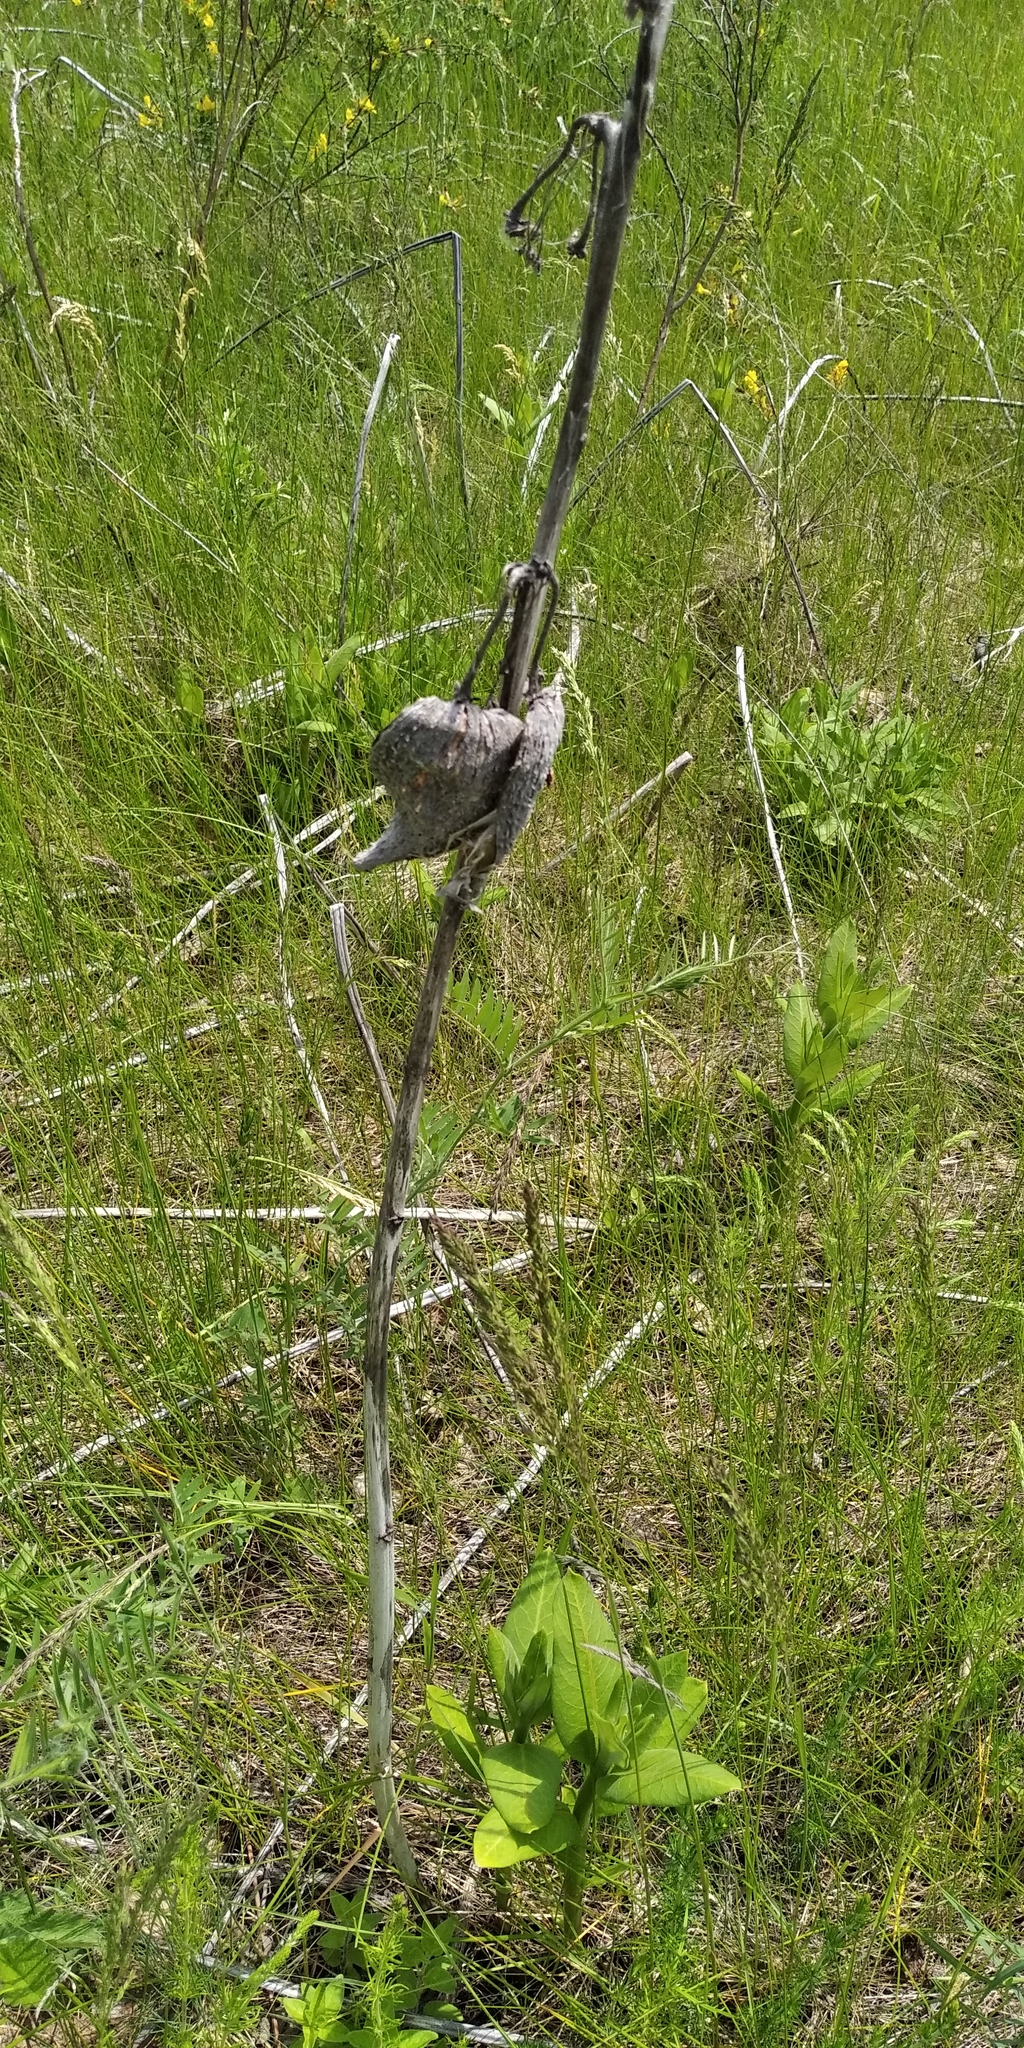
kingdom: Plantae
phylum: Tracheophyta
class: Magnoliopsida
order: Gentianales
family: Apocynaceae
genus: Asclepias
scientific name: Asclepias syriaca
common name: Common milkweed
